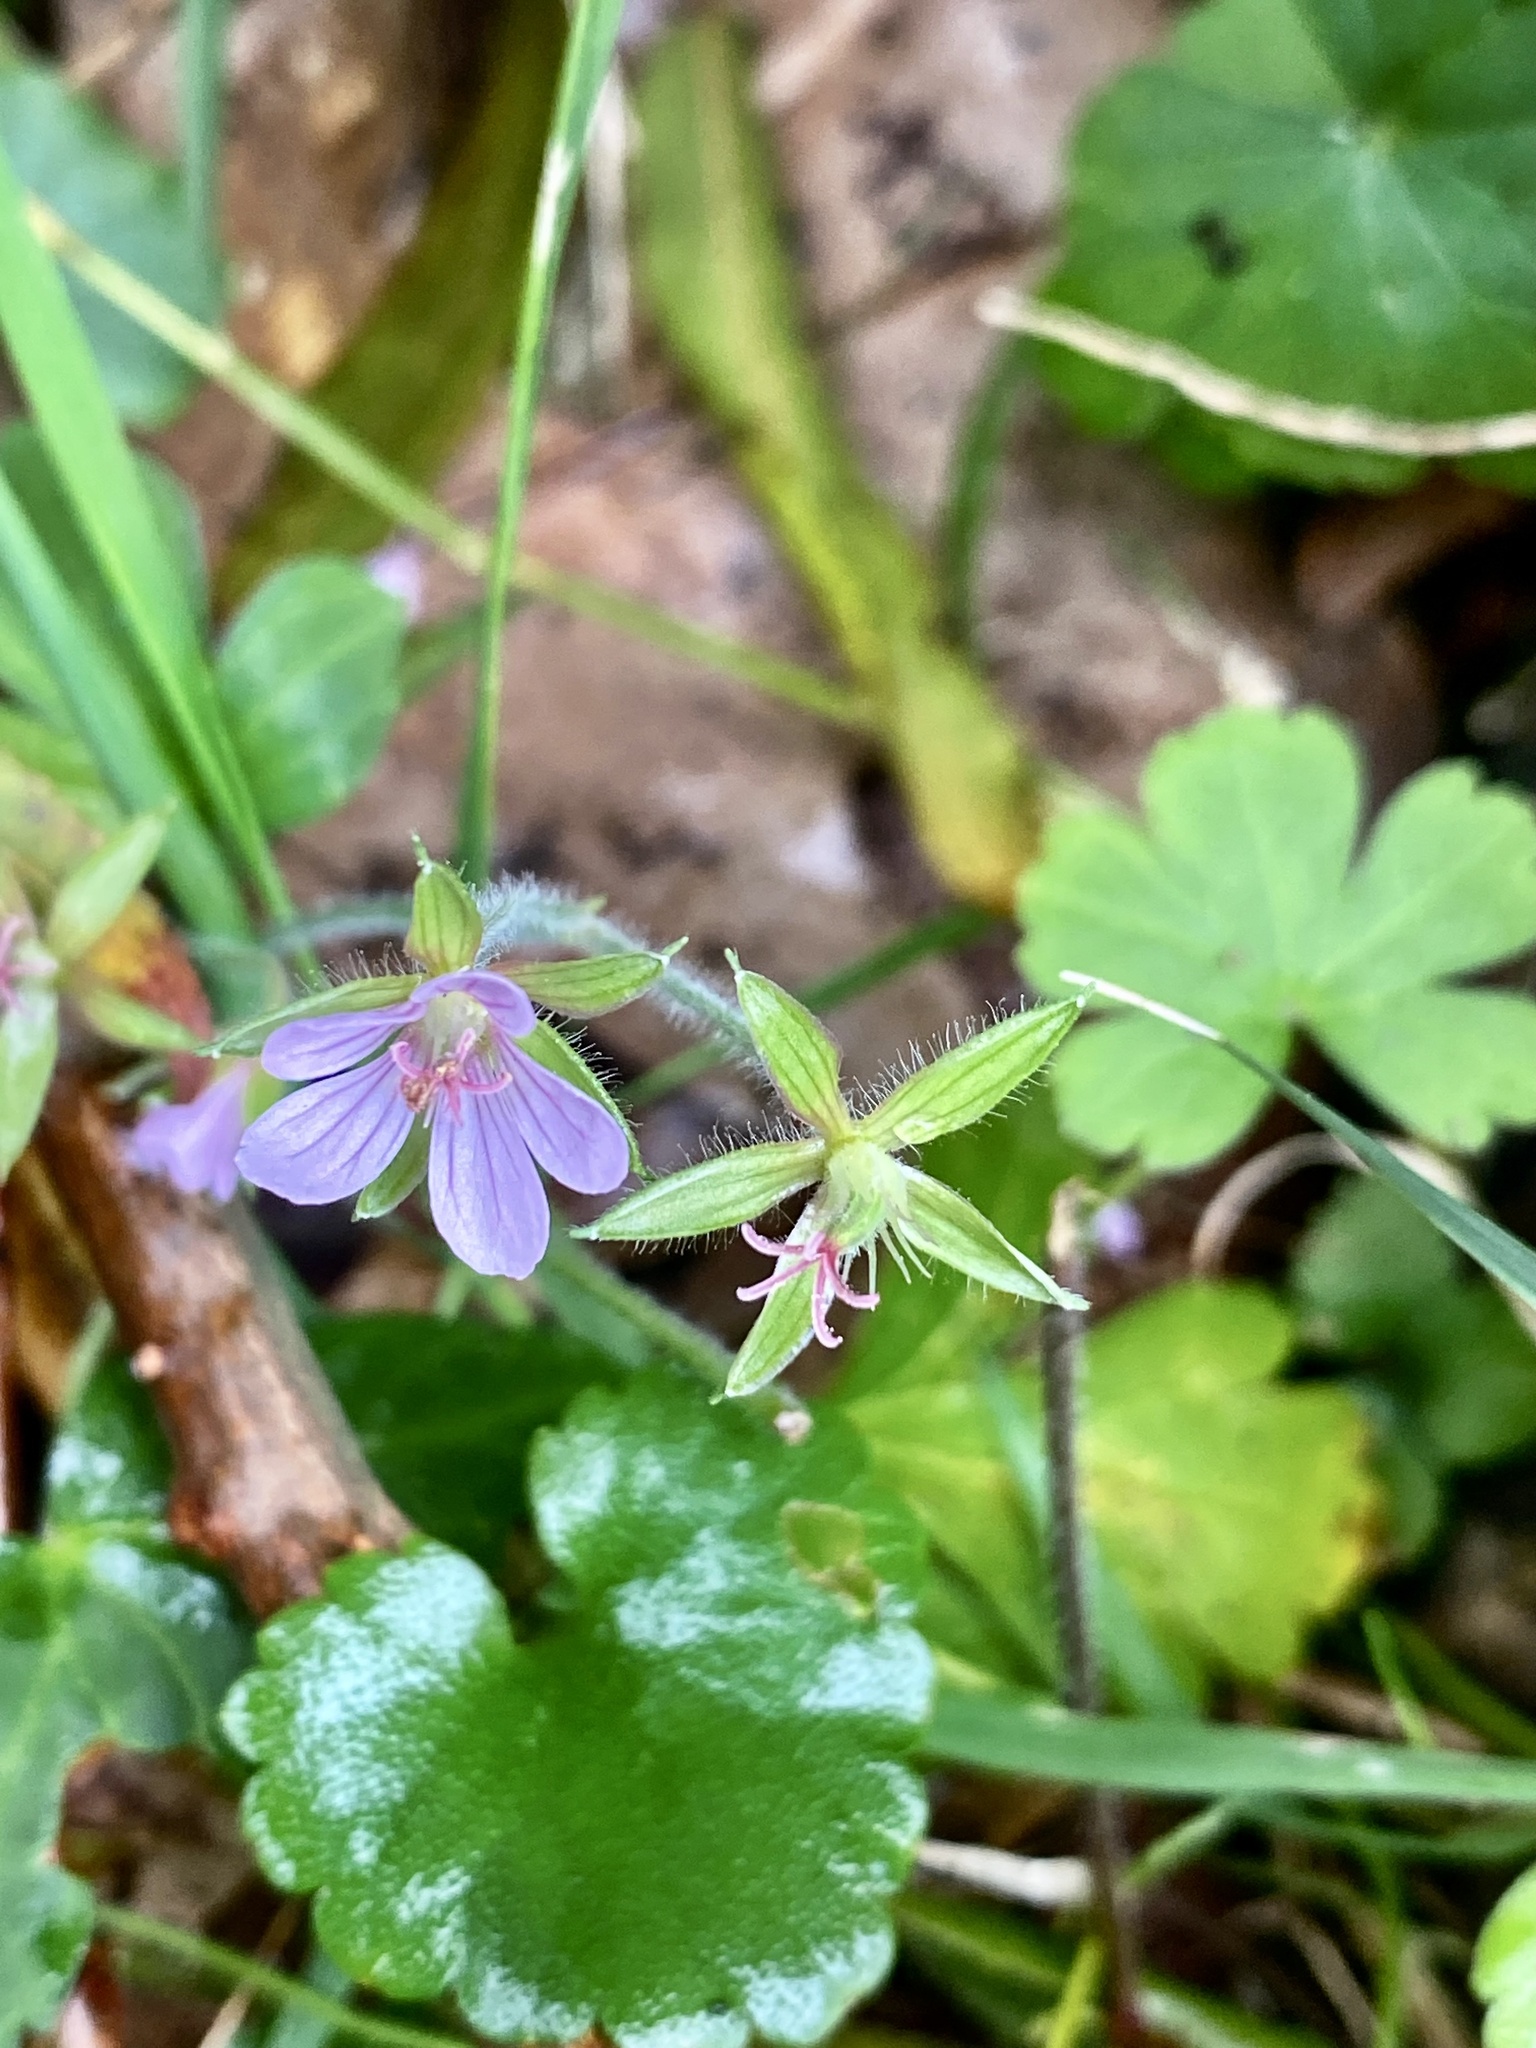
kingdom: Plantae
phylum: Tracheophyta
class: Magnoliopsida
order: Geraniales
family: Geraniaceae
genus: Geranium
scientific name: Geranium thunbergii
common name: Dewdrop crane's-bill
